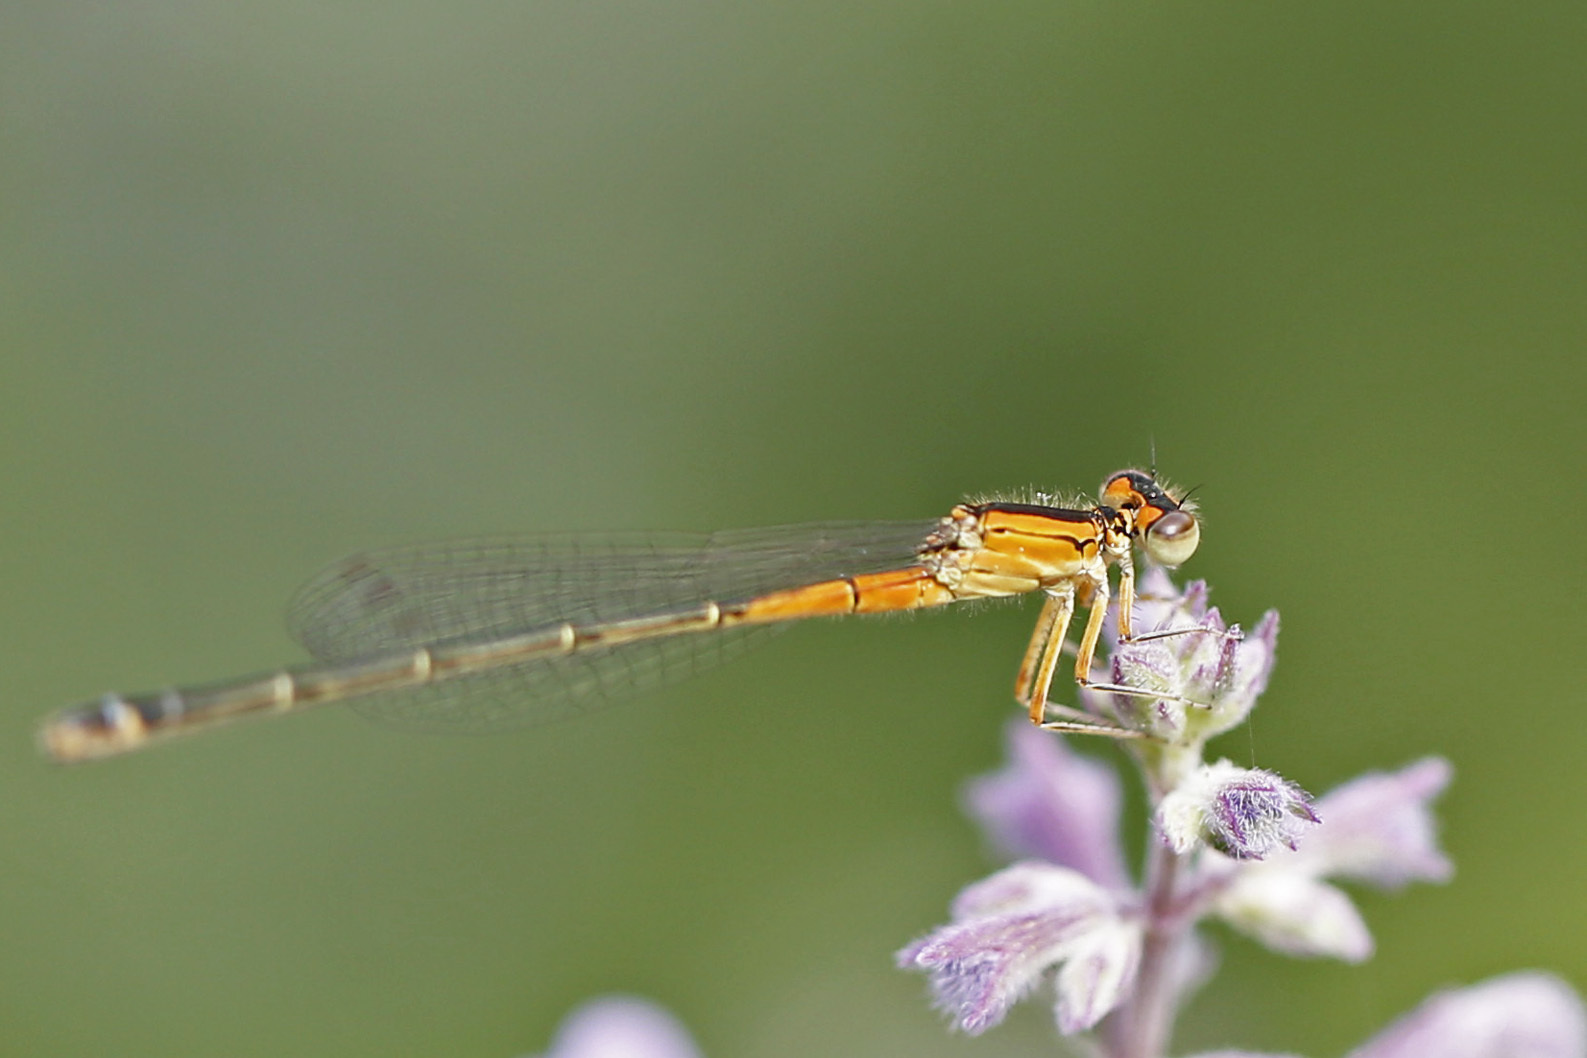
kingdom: Animalia
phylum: Arthropoda
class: Insecta
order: Odonata
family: Coenagrionidae
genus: Ischnura
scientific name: Ischnura verticalis
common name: Eastern forktail
